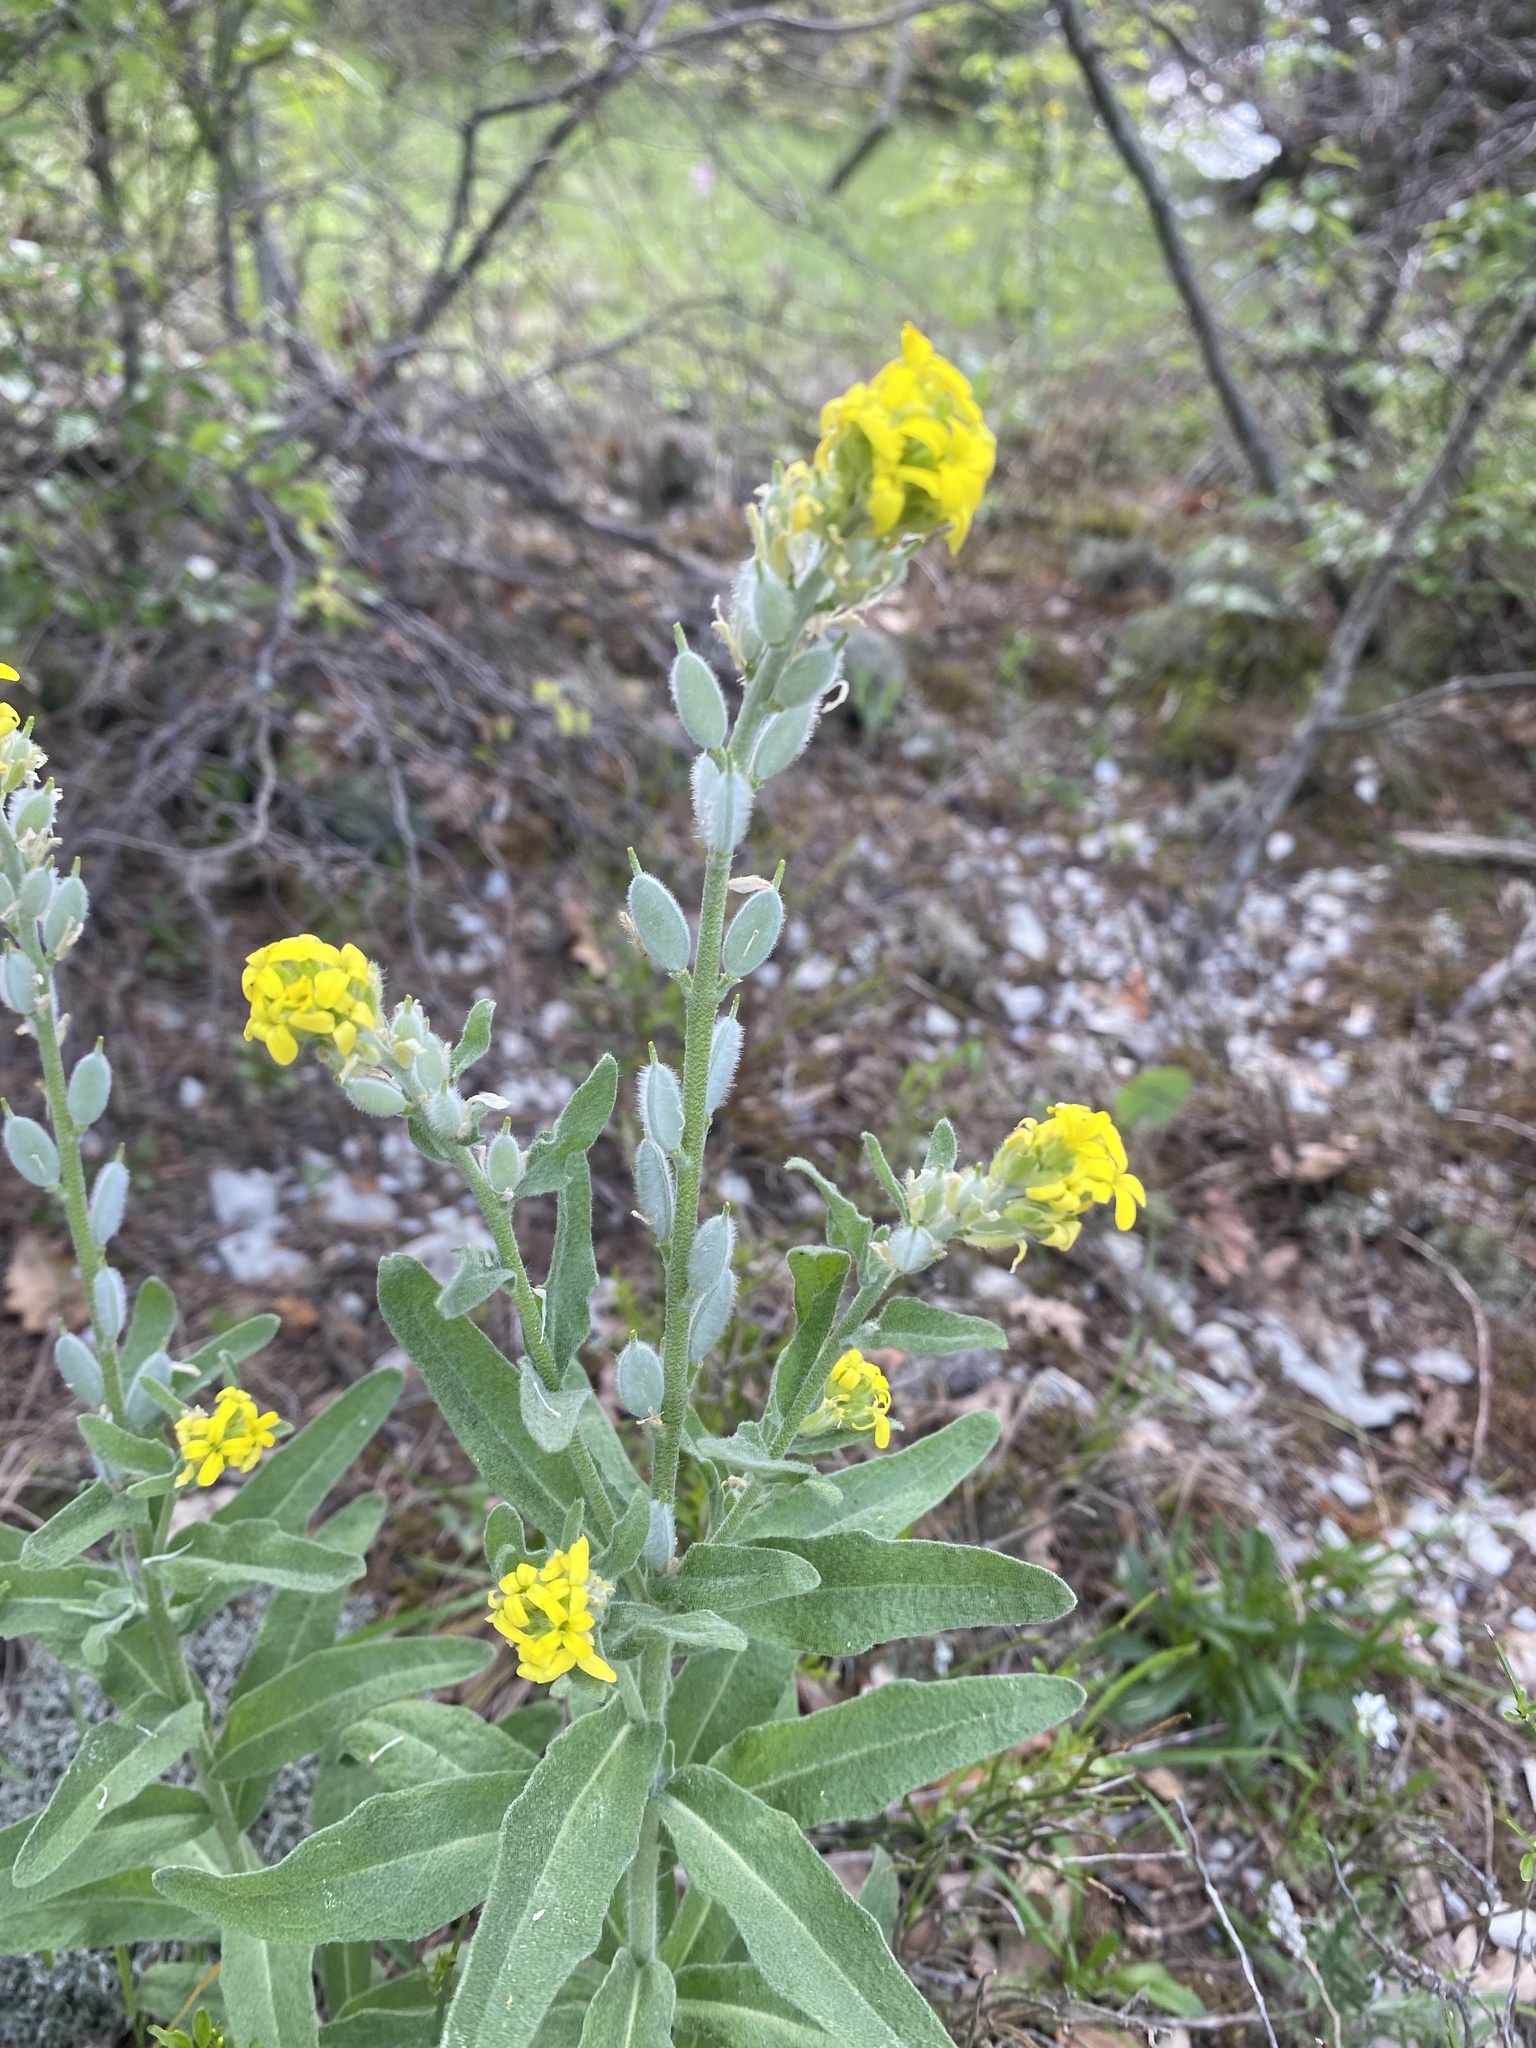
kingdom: Plantae
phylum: Tracheophyta
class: Magnoliopsida
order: Brassicales
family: Brassicaceae
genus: Fibigia
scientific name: Fibigia clypeata
